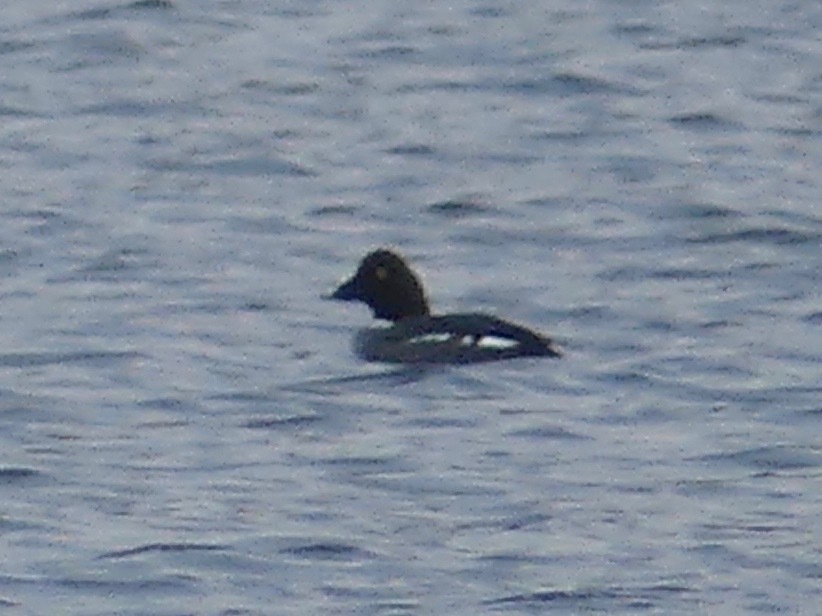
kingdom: Animalia
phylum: Chordata
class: Aves
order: Anseriformes
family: Anatidae
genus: Bucephala
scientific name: Bucephala clangula
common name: Common goldeneye
